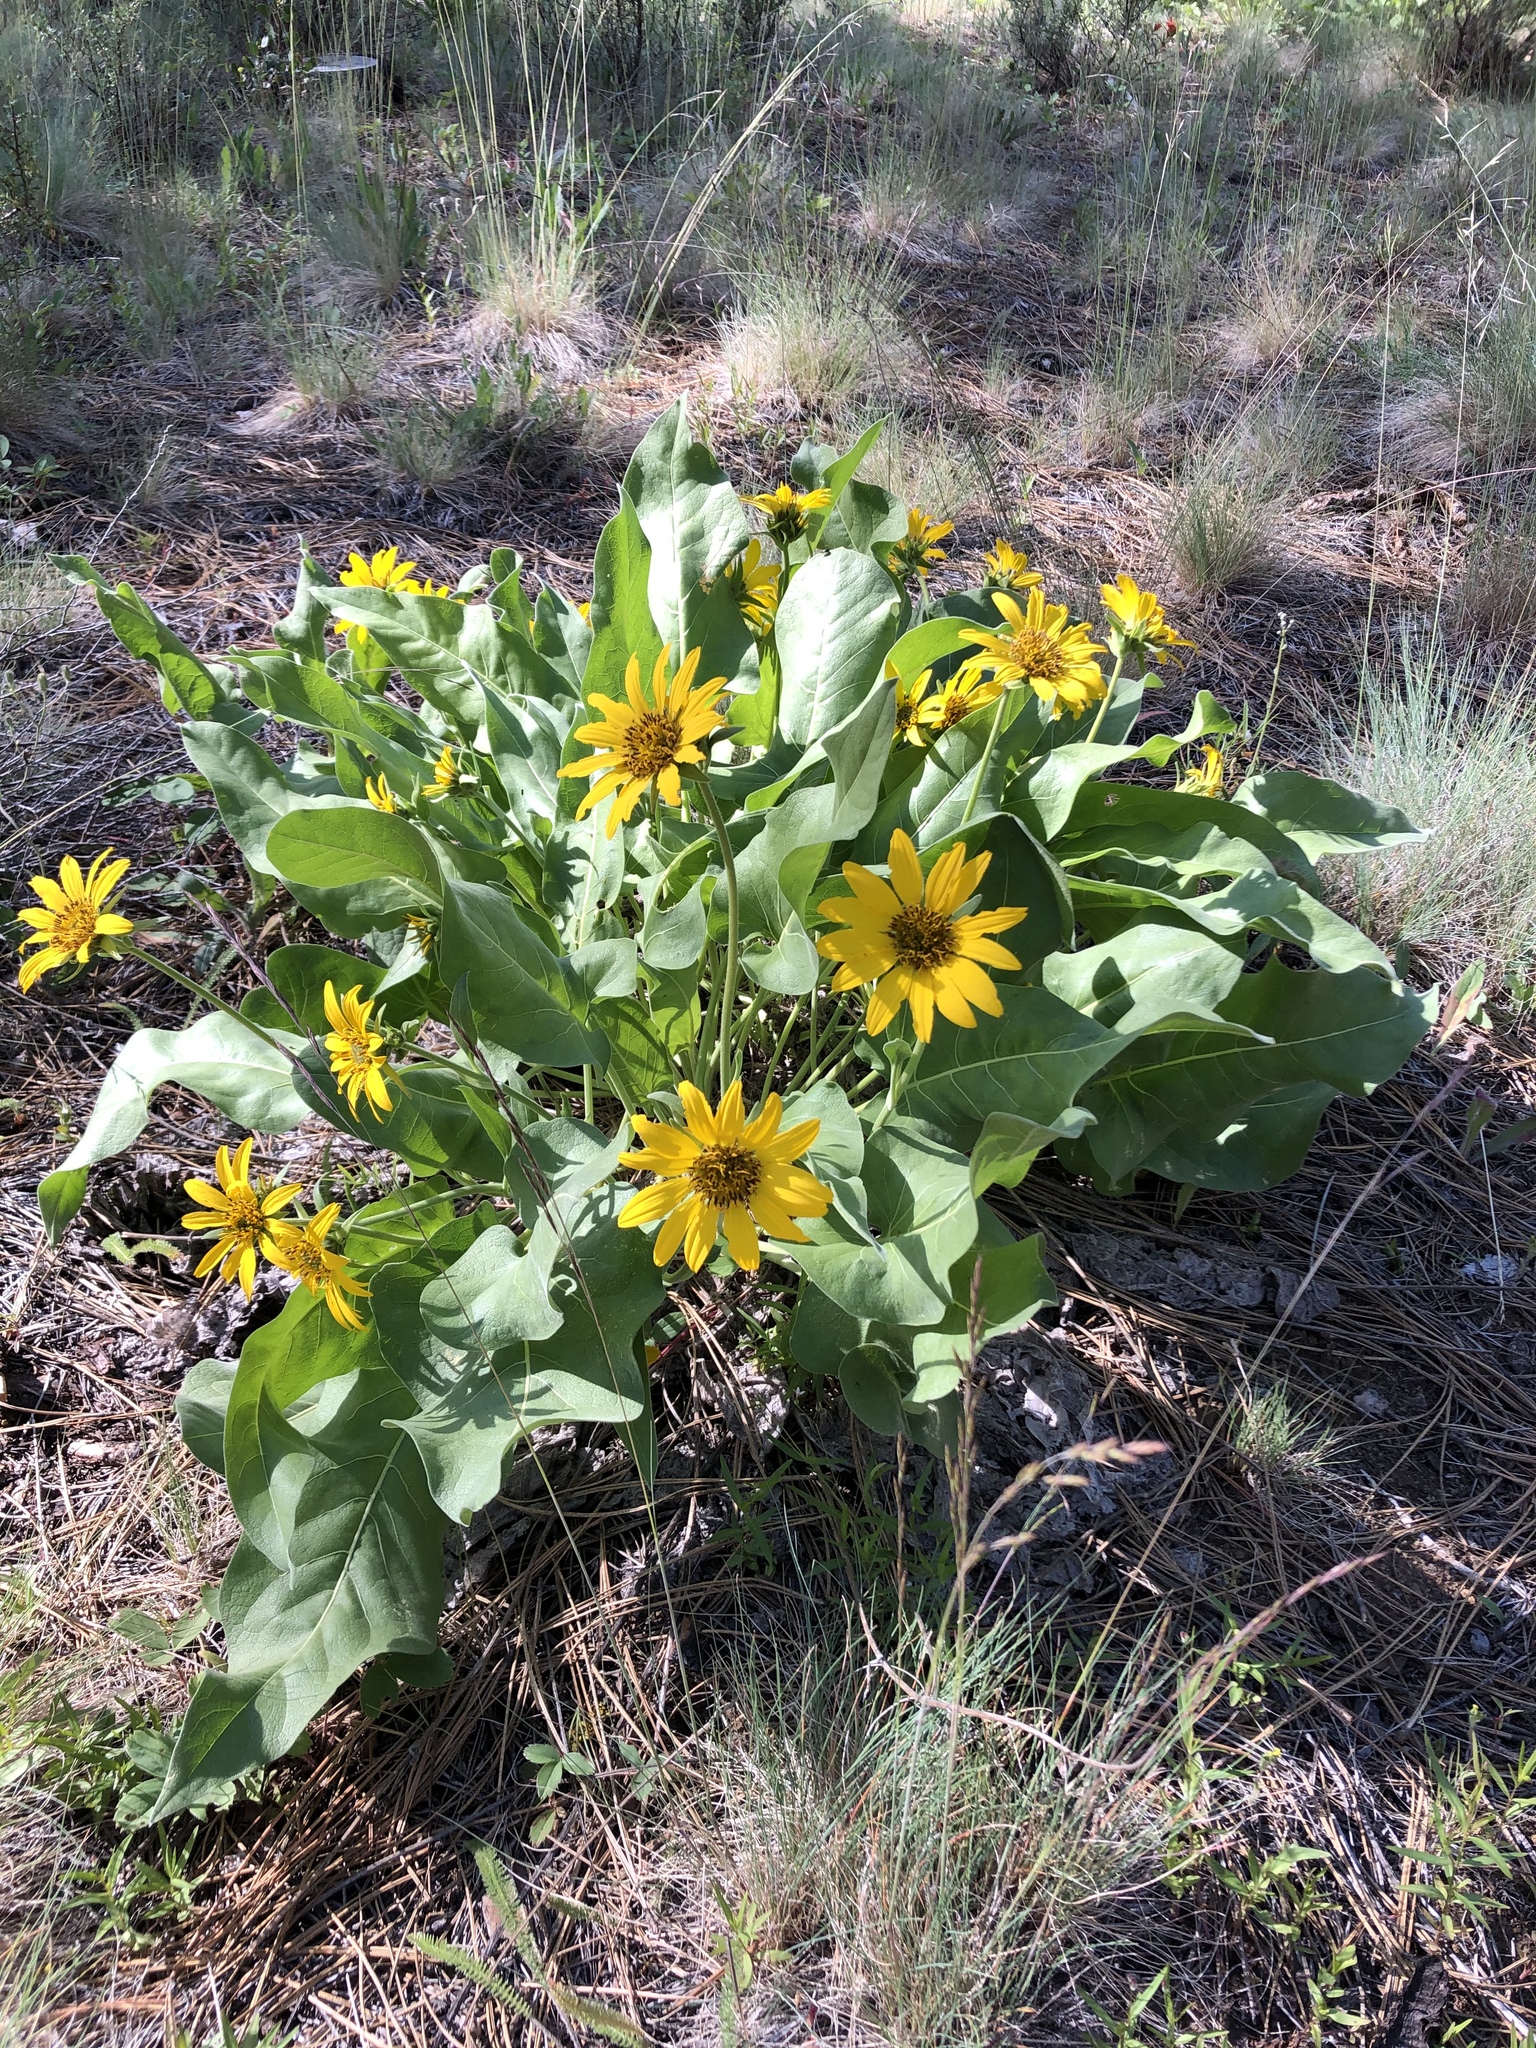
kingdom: Plantae
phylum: Tracheophyta
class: Magnoliopsida
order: Asterales
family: Asteraceae
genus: Balsamorhiza
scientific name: Balsamorhiza careyana
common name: Carey's balsamroot
